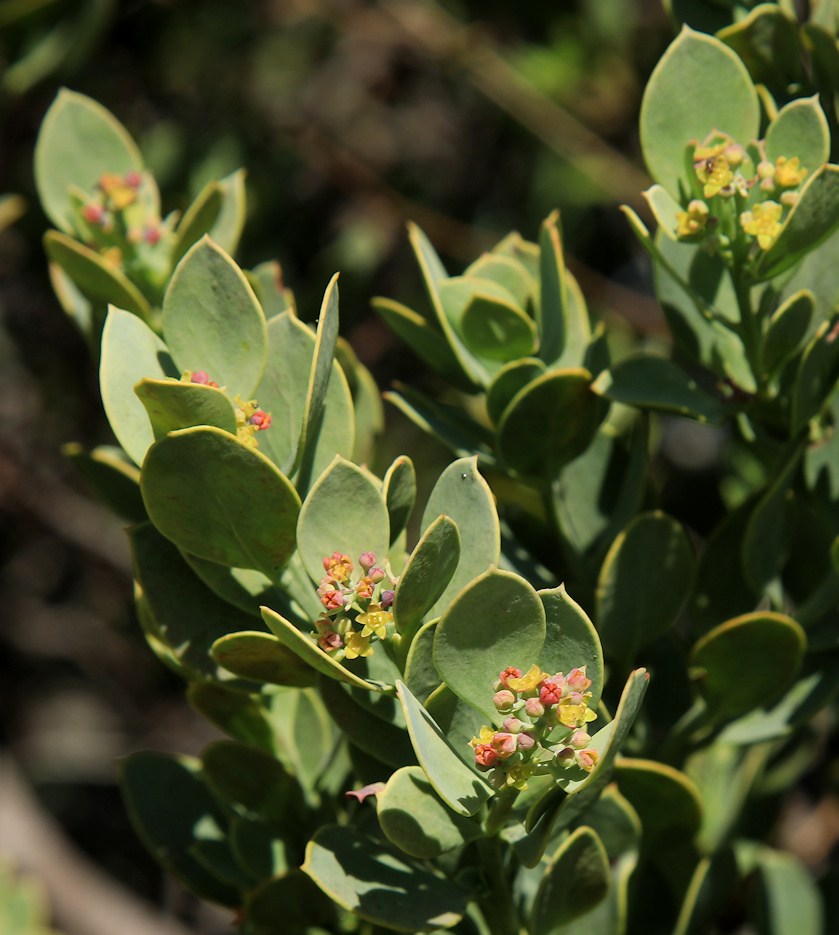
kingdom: Plantae
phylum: Tracheophyta
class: Magnoliopsida
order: Santalales
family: Santalaceae
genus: Osyris
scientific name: Osyris compressa
